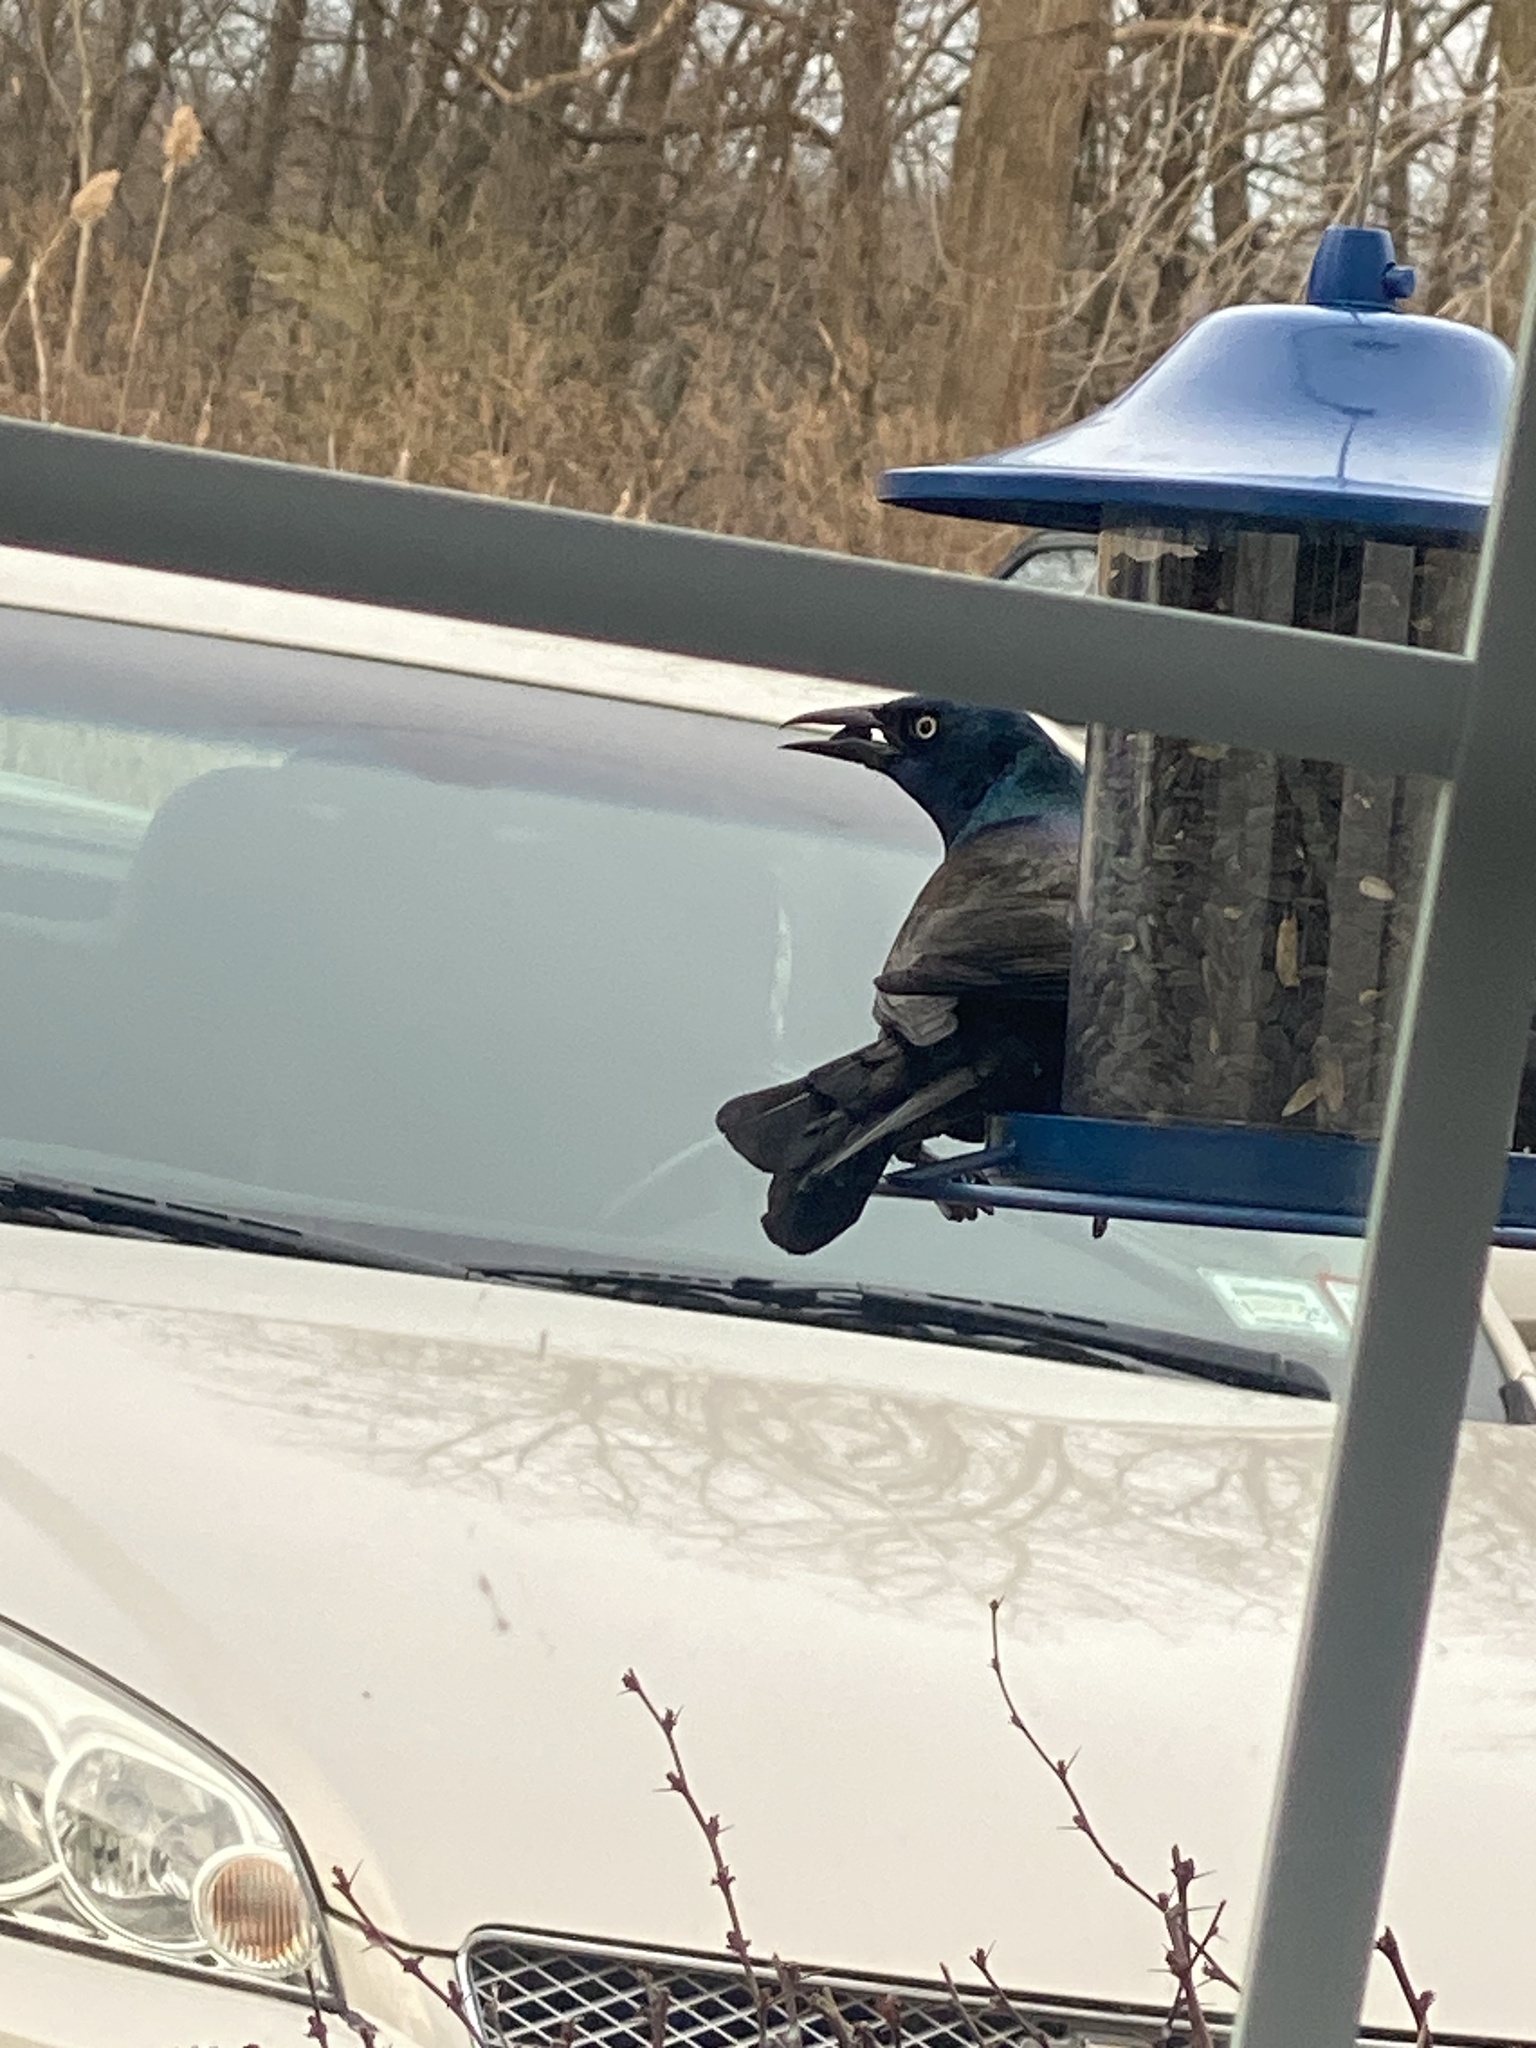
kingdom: Animalia
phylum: Chordata
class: Aves
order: Passeriformes
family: Icteridae
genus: Quiscalus
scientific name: Quiscalus quiscula
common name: Common grackle
